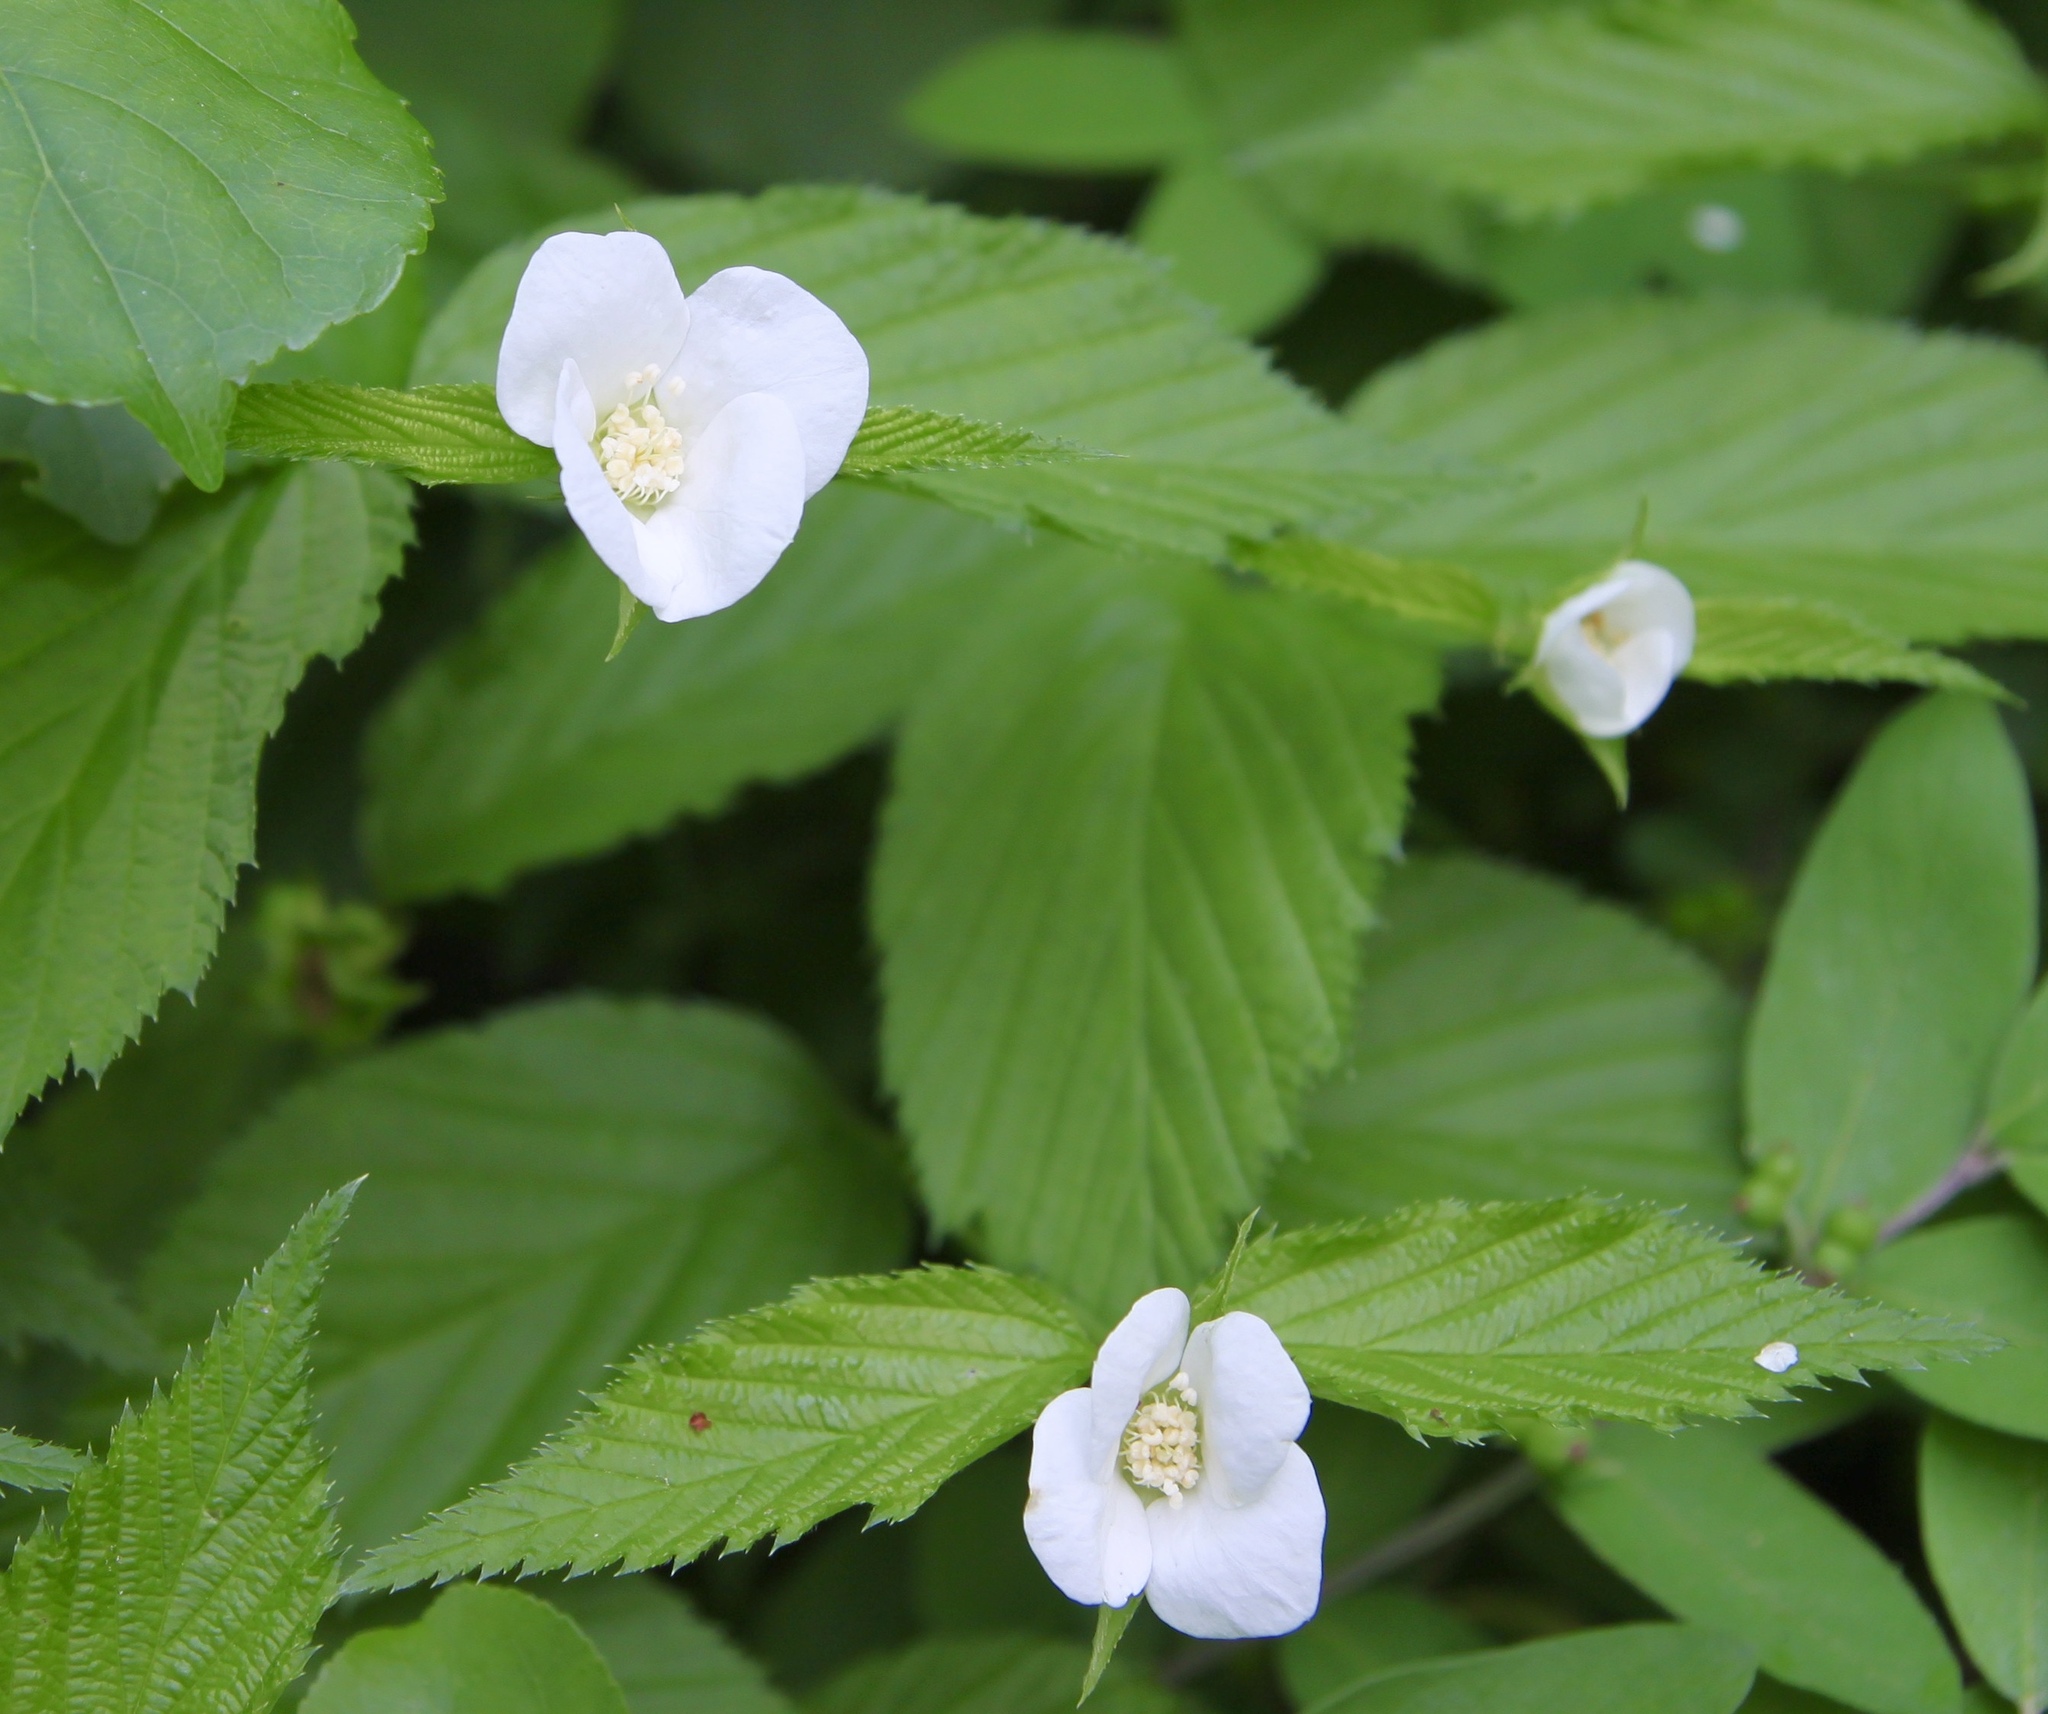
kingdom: Plantae
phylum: Tracheophyta
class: Magnoliopsida
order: Rosales
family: Rosaceae
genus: Rhodotypos
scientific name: Rhodotypos scandens
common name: Jetbead
